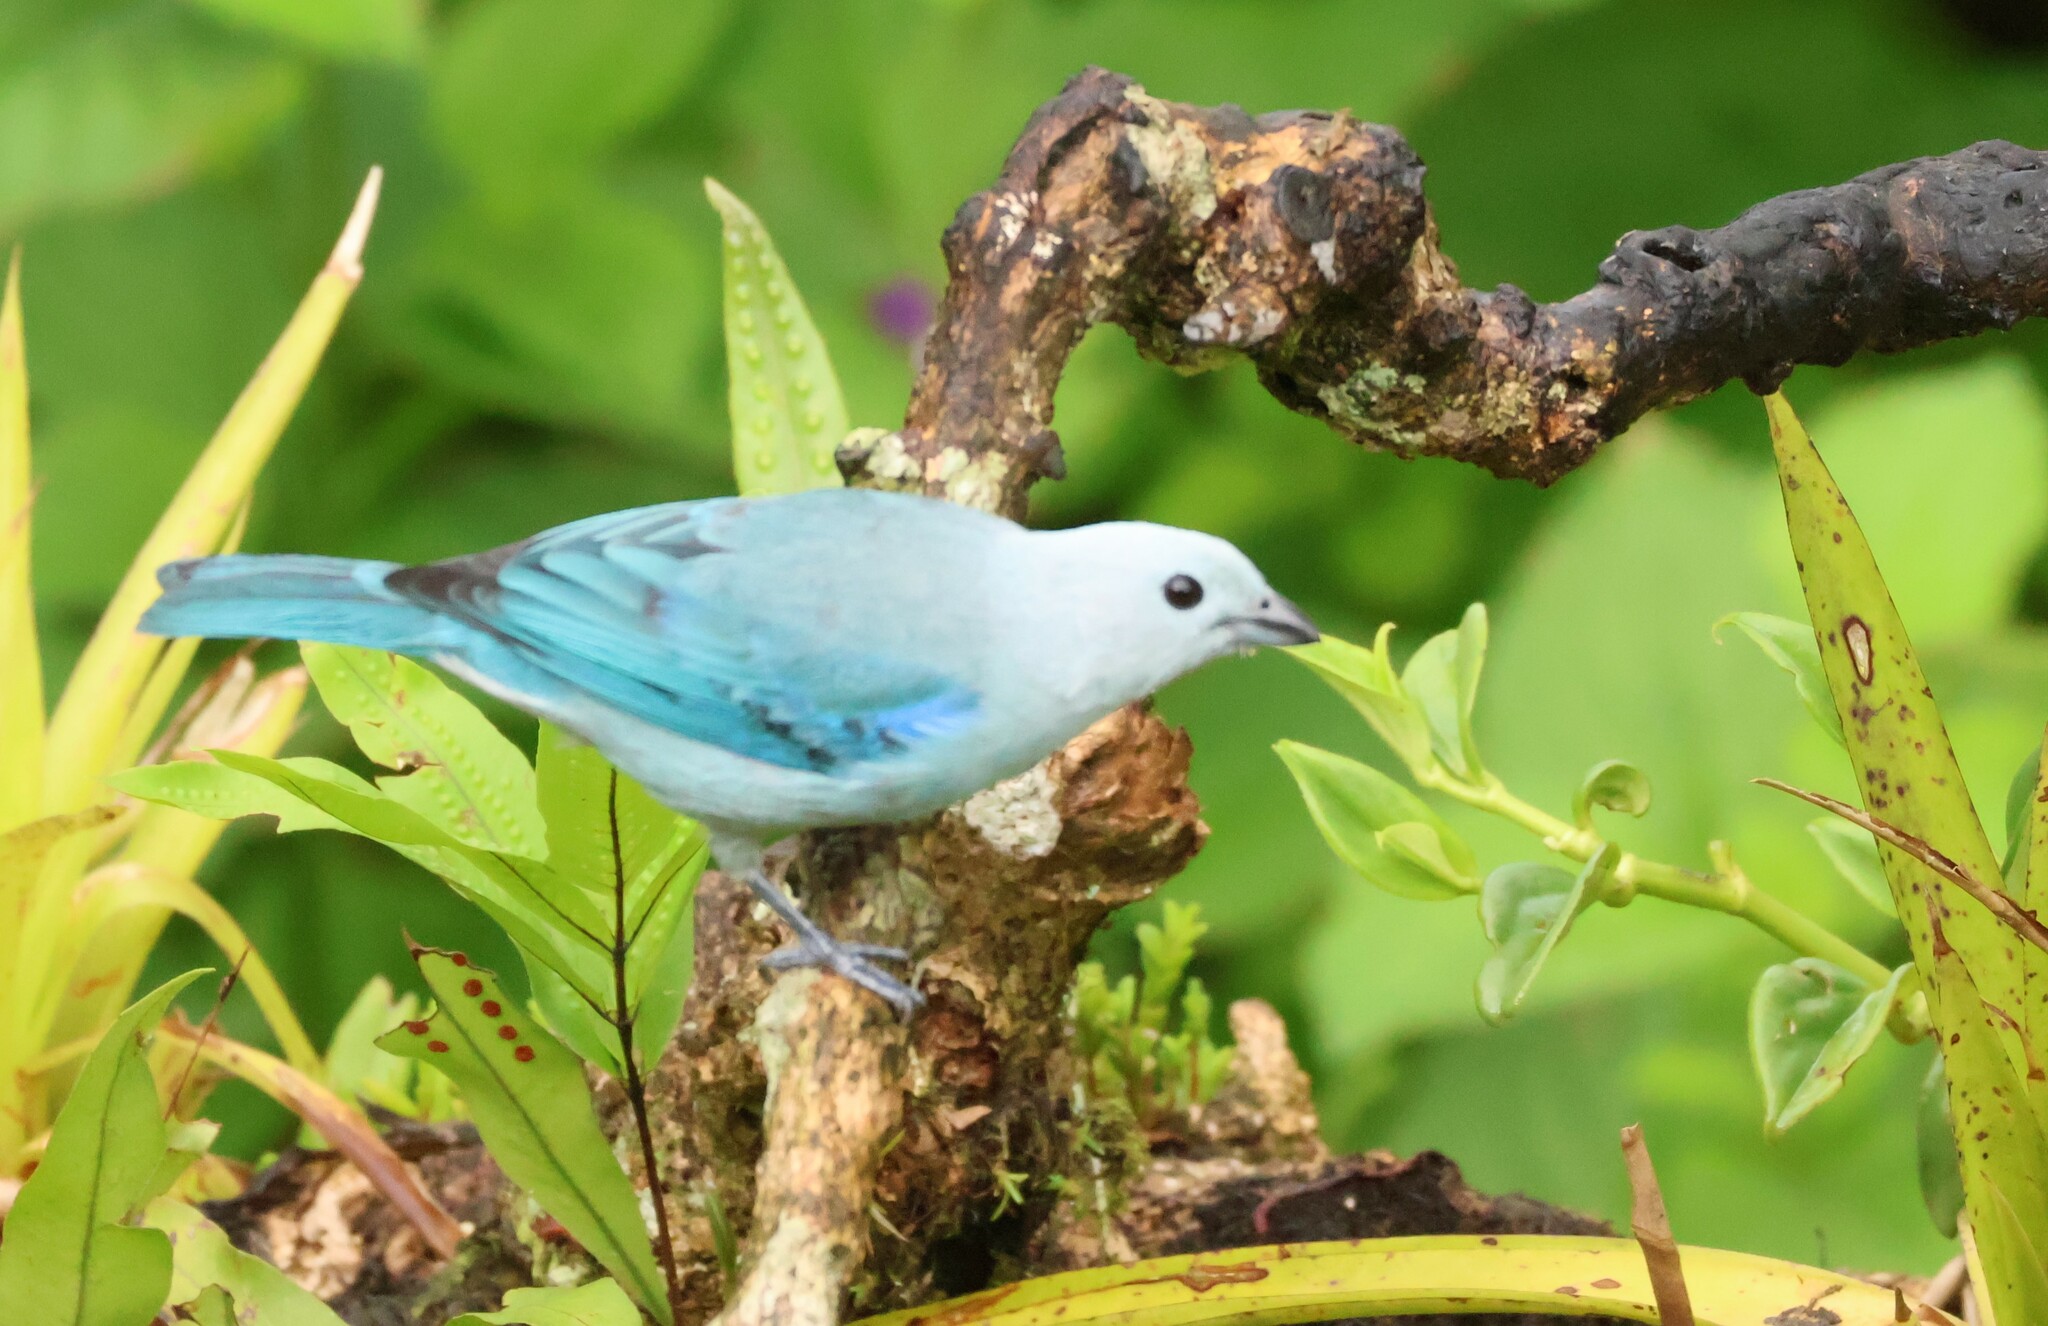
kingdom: Animalia
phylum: Chordata
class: Aves
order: Passeriformes
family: Thraupidae
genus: Thraupis
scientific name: Thraupis episcopus
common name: Blue-grey tanager
